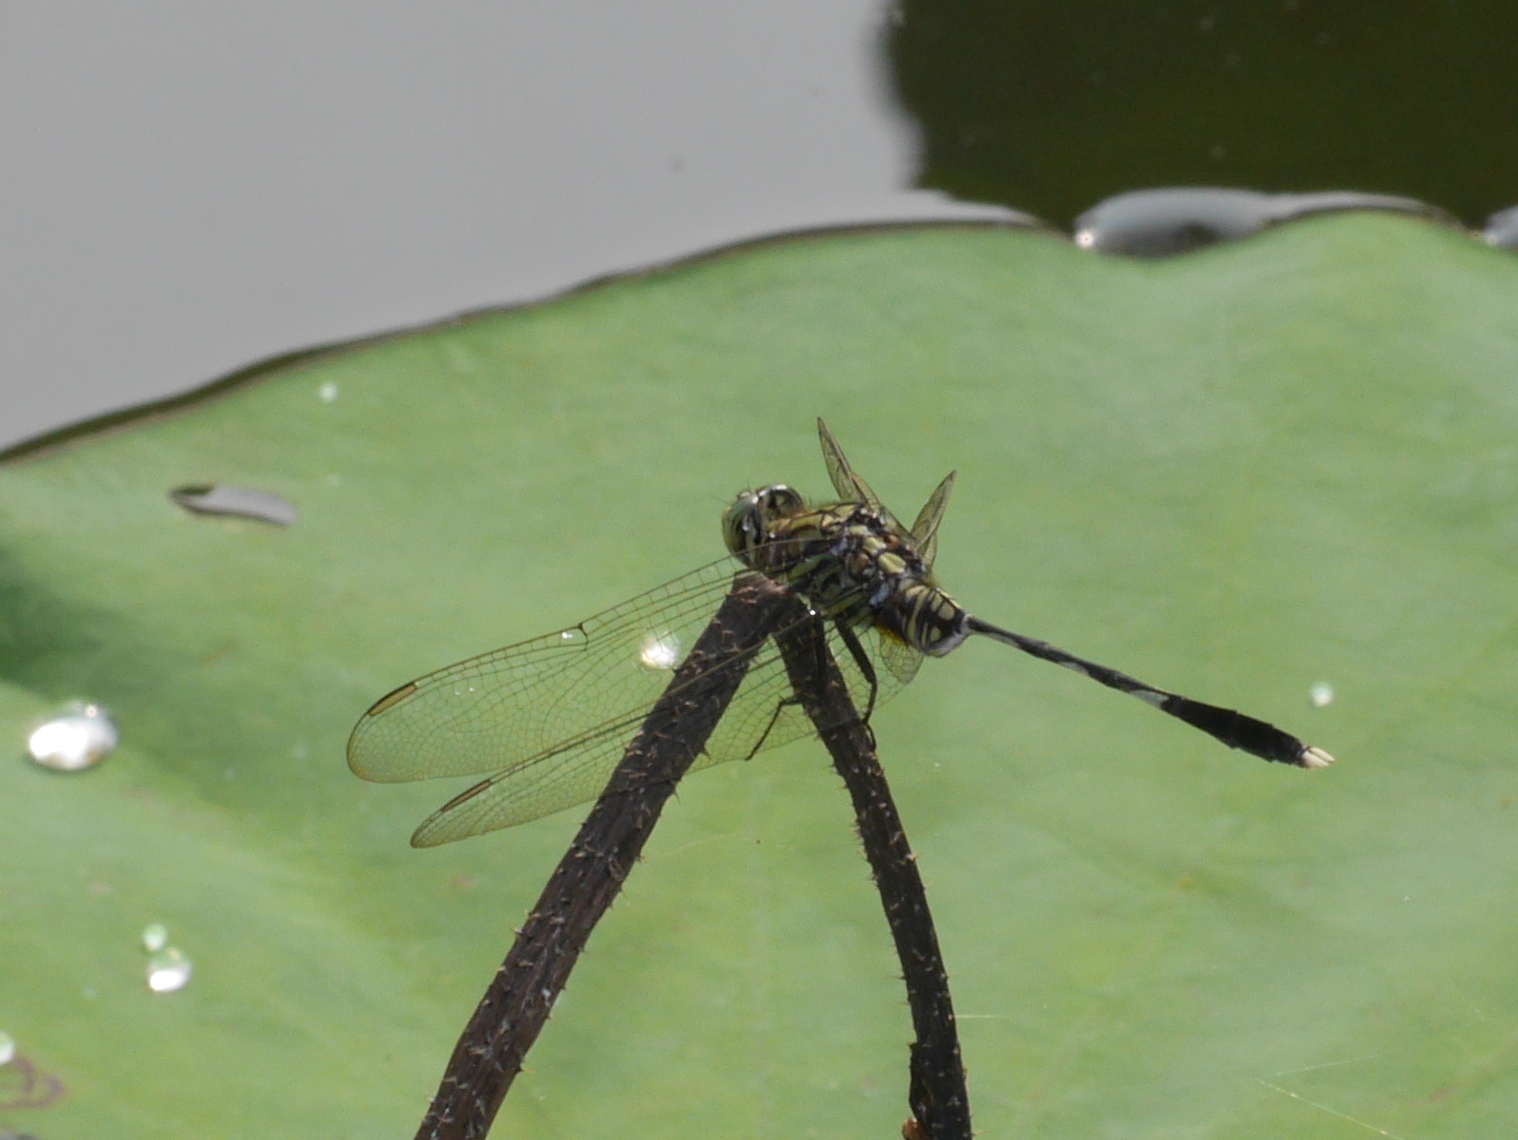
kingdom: Animalia
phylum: Arthropoda
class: Insecta
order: Odonata
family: Libellulidae
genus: Orthetrum
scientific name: Orthetrum sabina
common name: Slender skimmer
